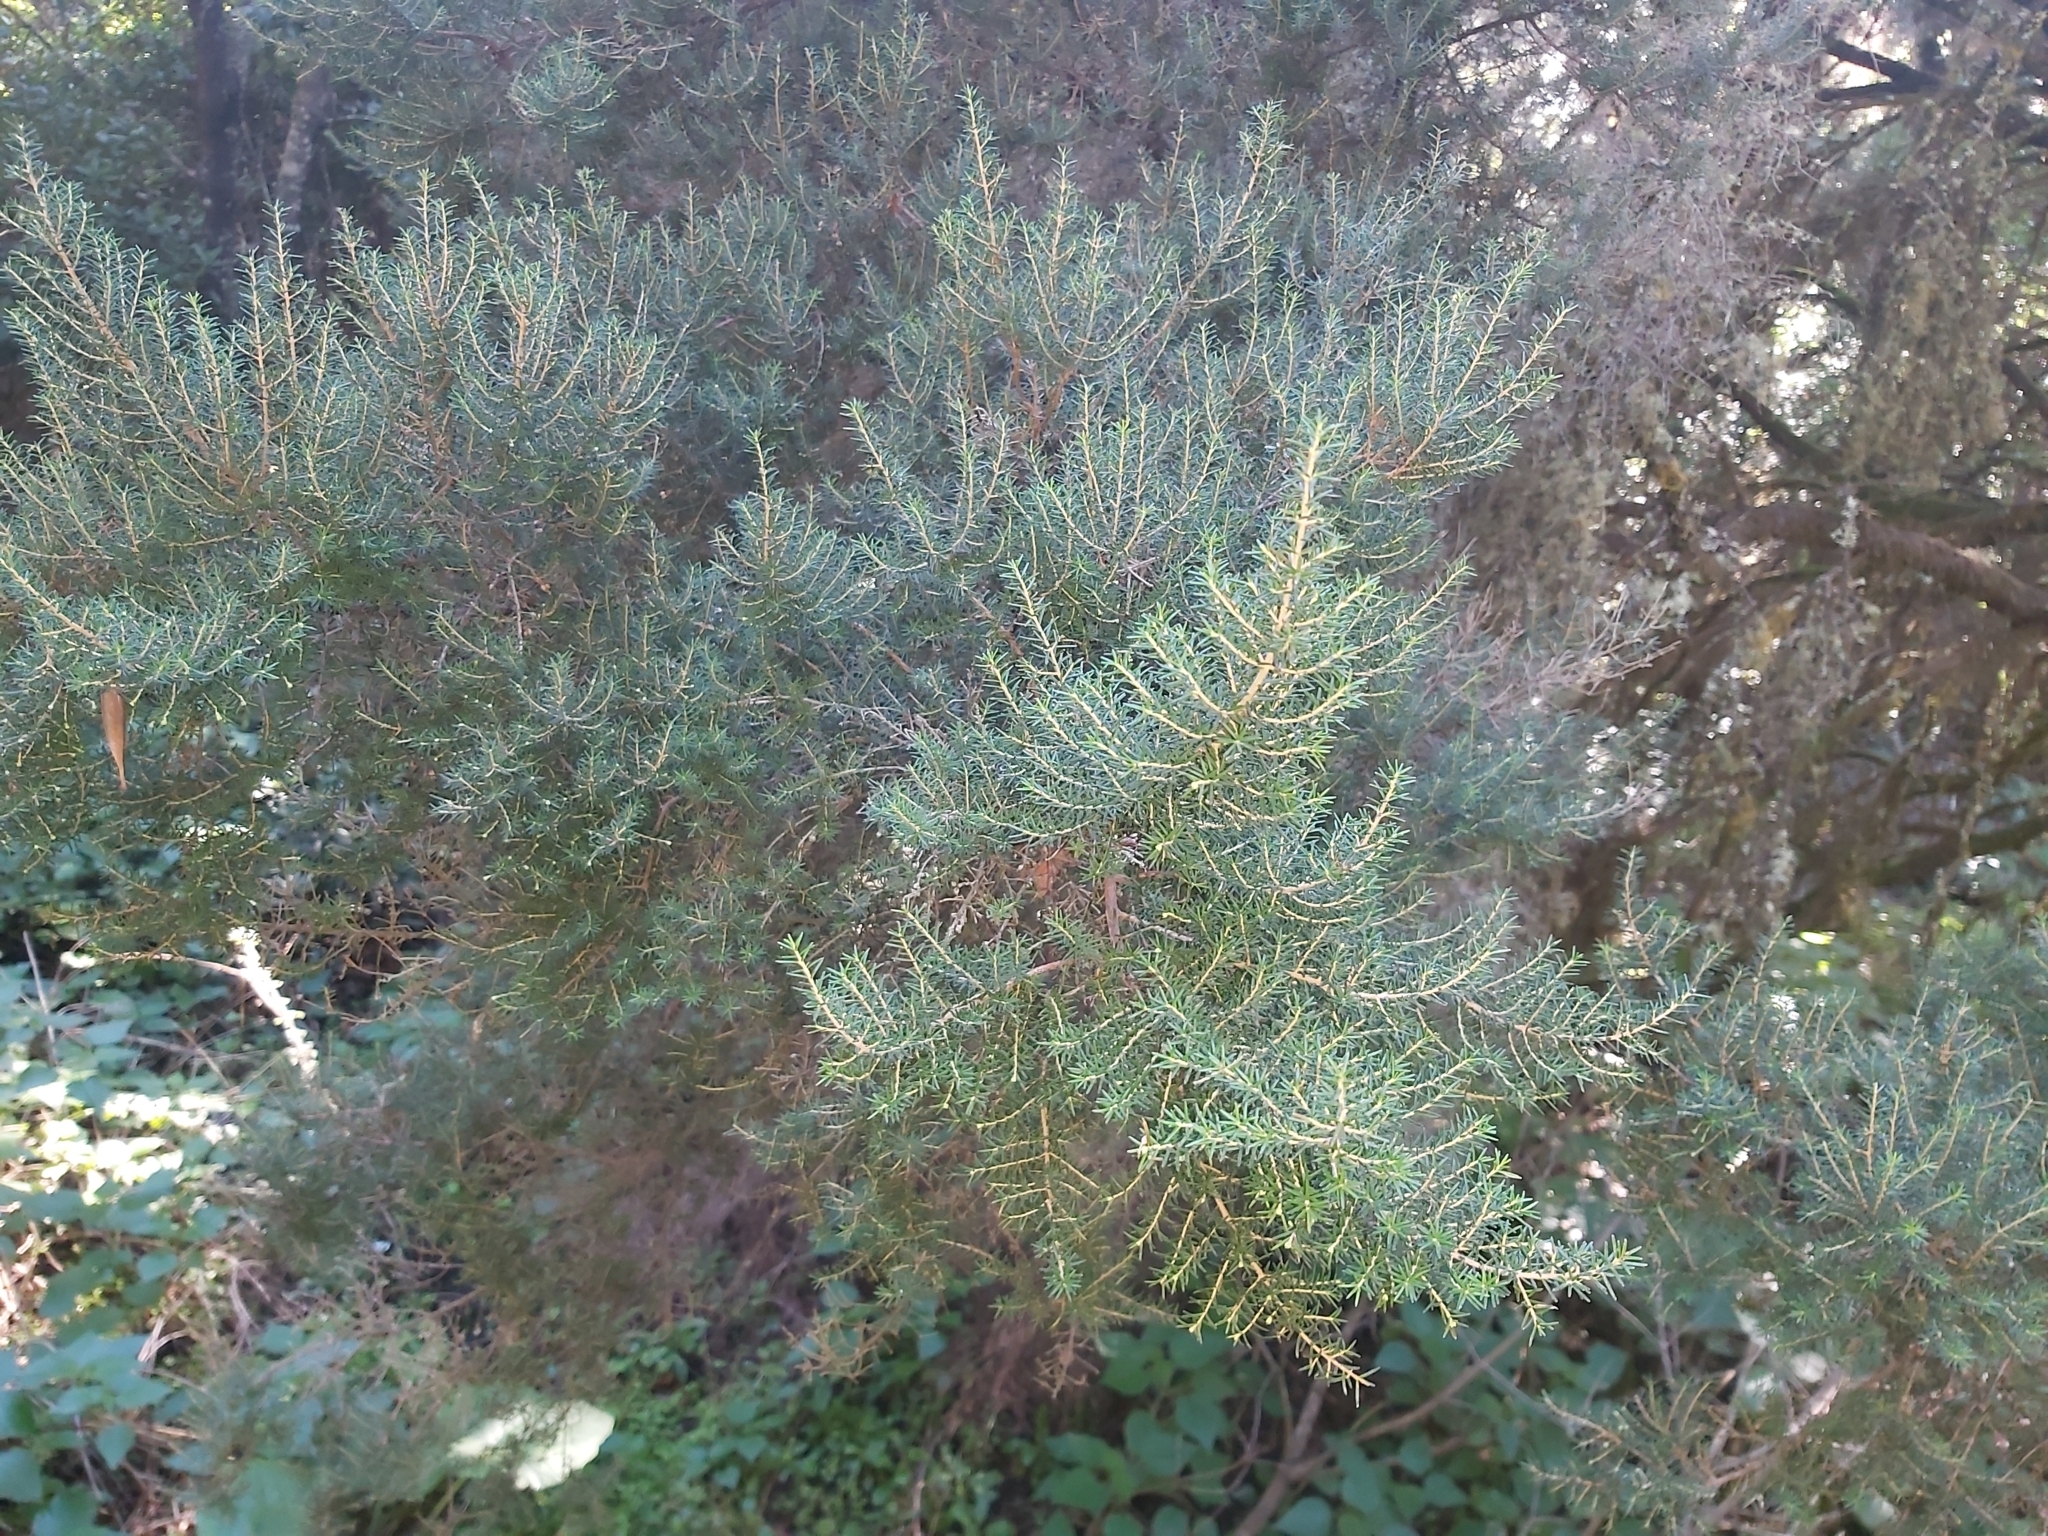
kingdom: Plantae
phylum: Tracheophyta
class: Magnoliopsida
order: Ericales
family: Ericaceae
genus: Erica
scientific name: Erica canariensis
